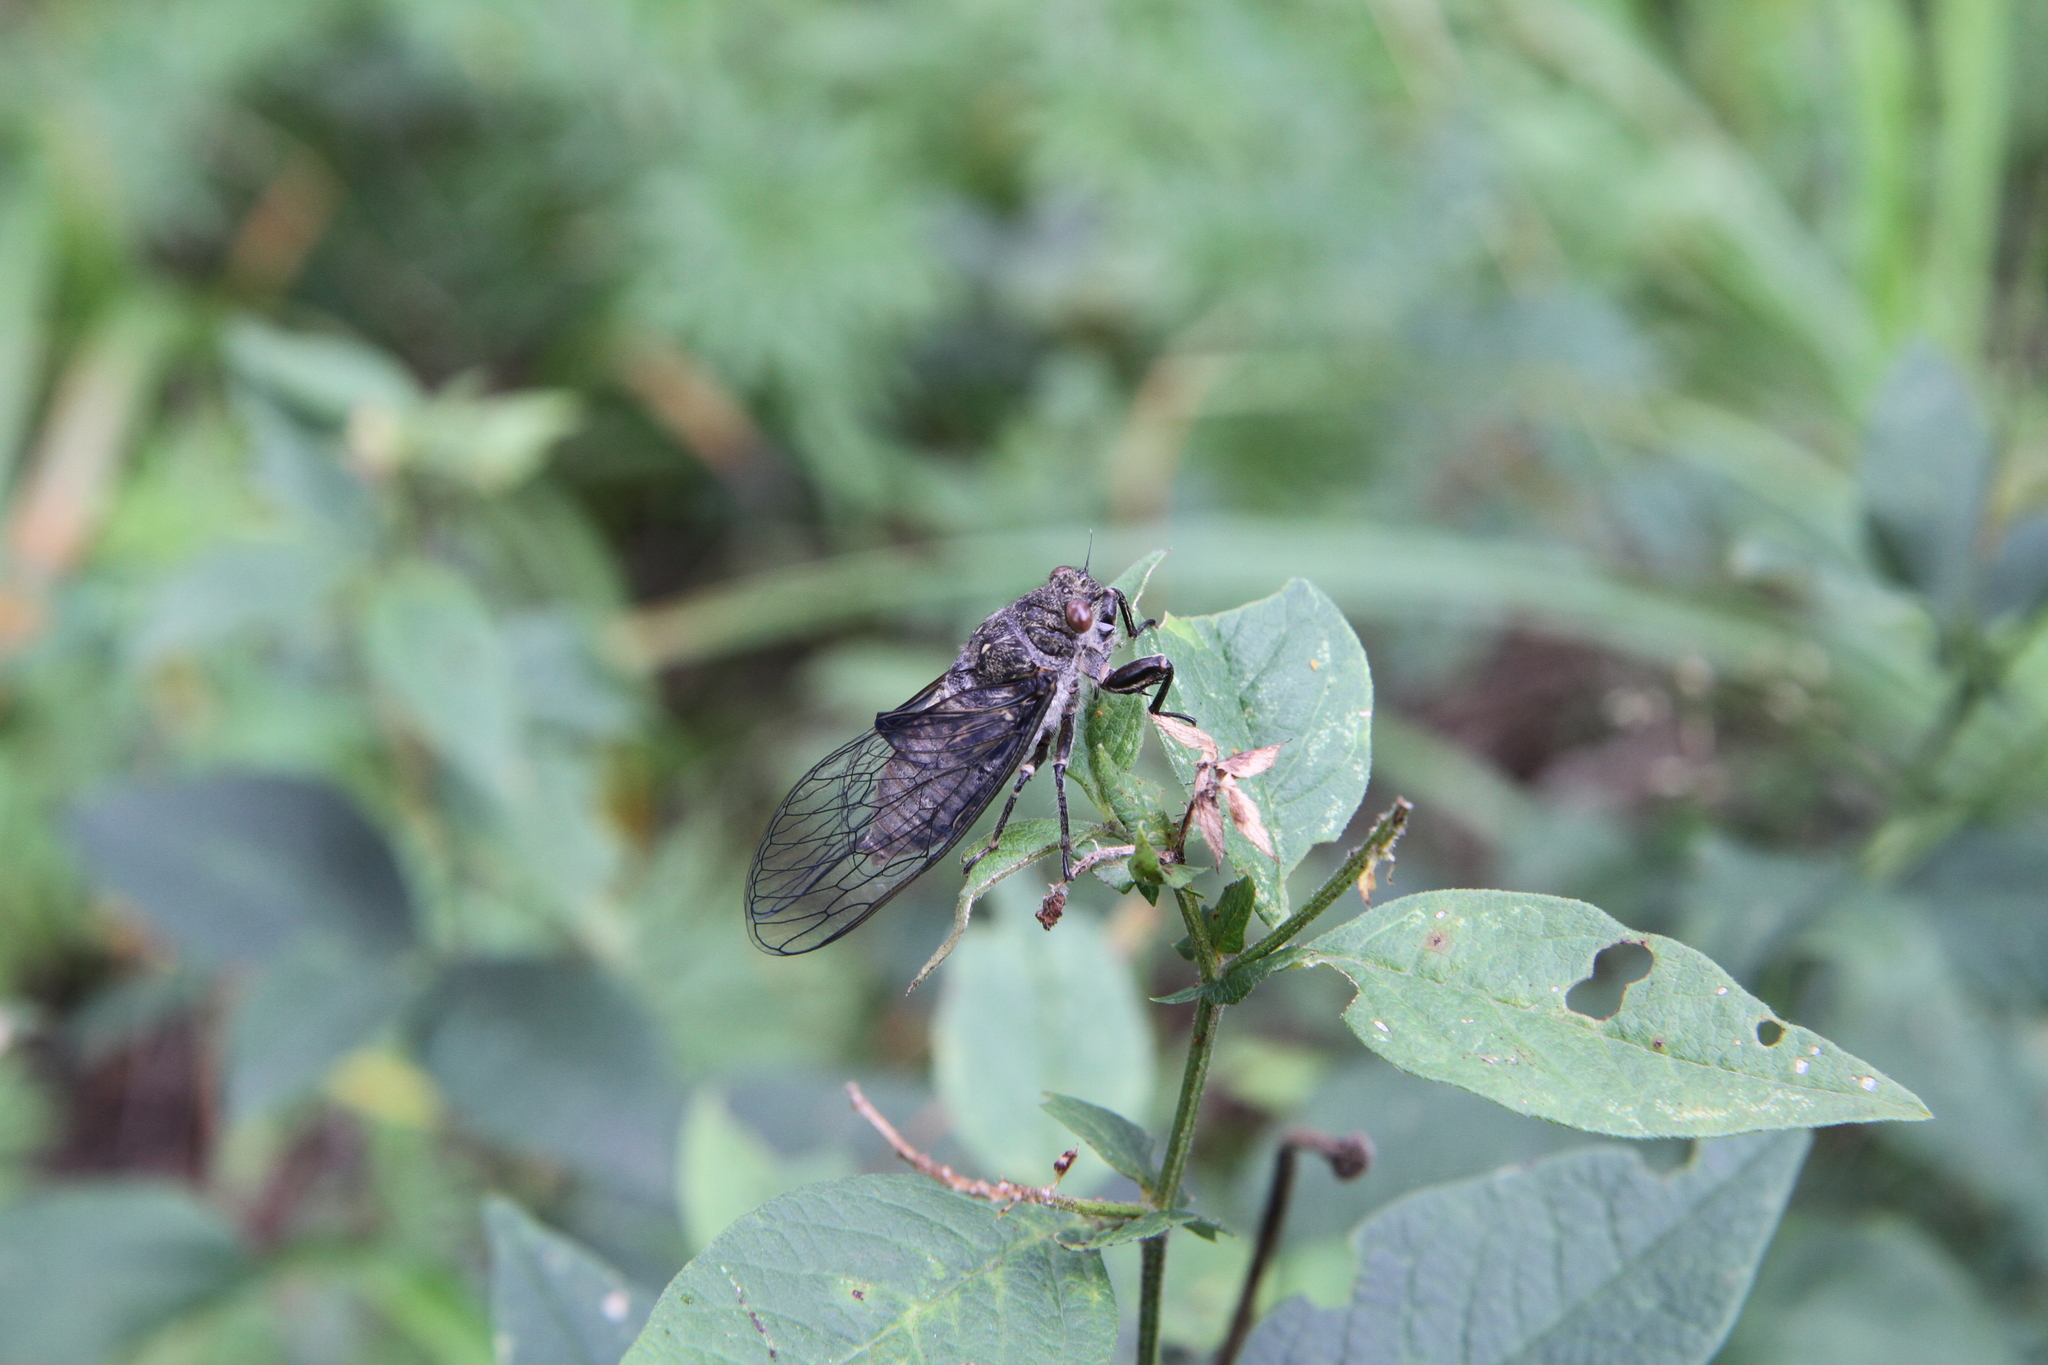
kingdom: Animalia
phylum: Arthropoda
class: Insecta
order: Hemiptera
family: Cicadidae
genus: Kosemia
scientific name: Kosemia yezoensis
